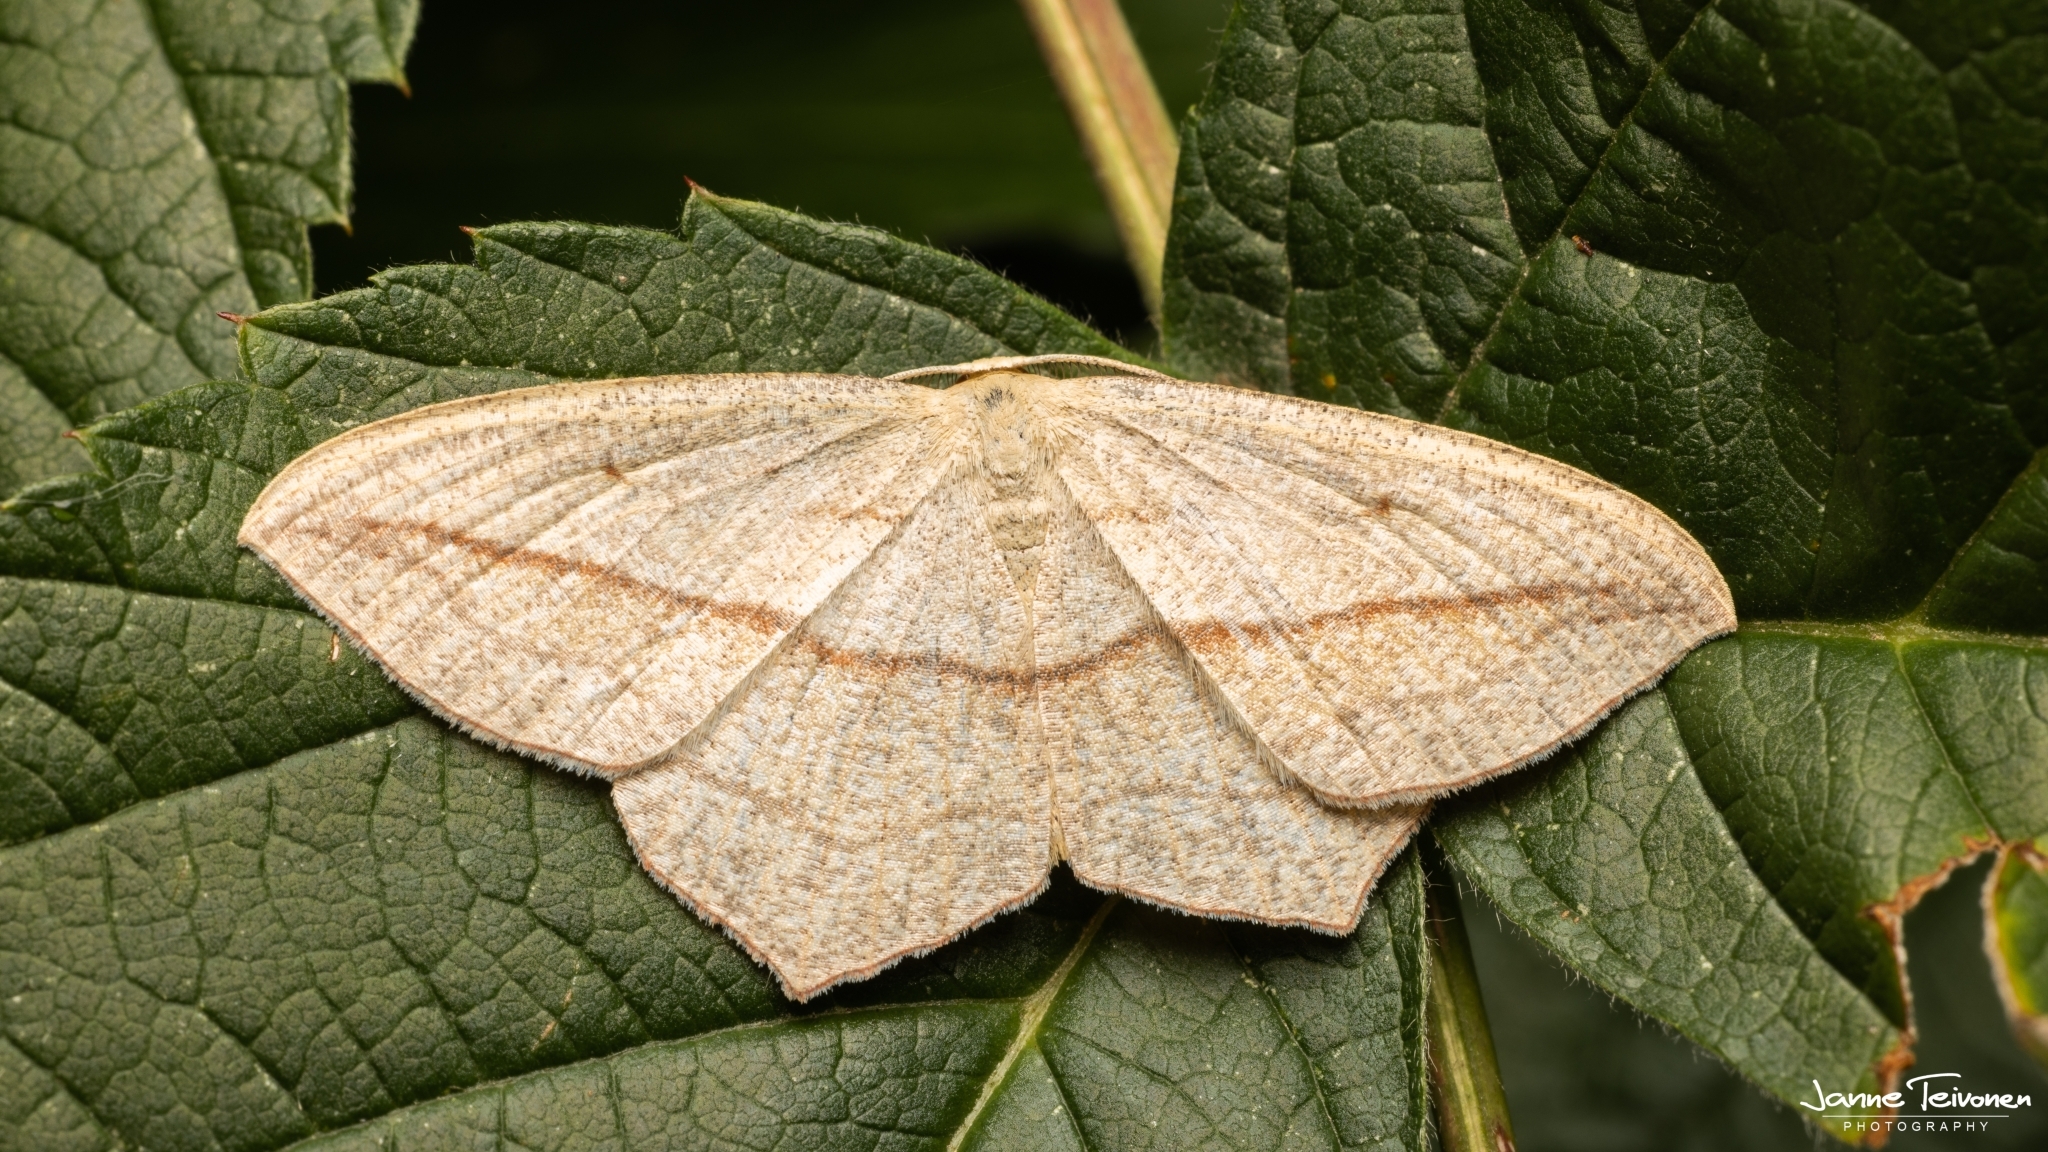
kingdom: Animalia
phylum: Arthropoda
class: Insecta
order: Lepidoptera
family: Geometridae
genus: Timandra
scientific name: Timandra comae
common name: Blood-vein
